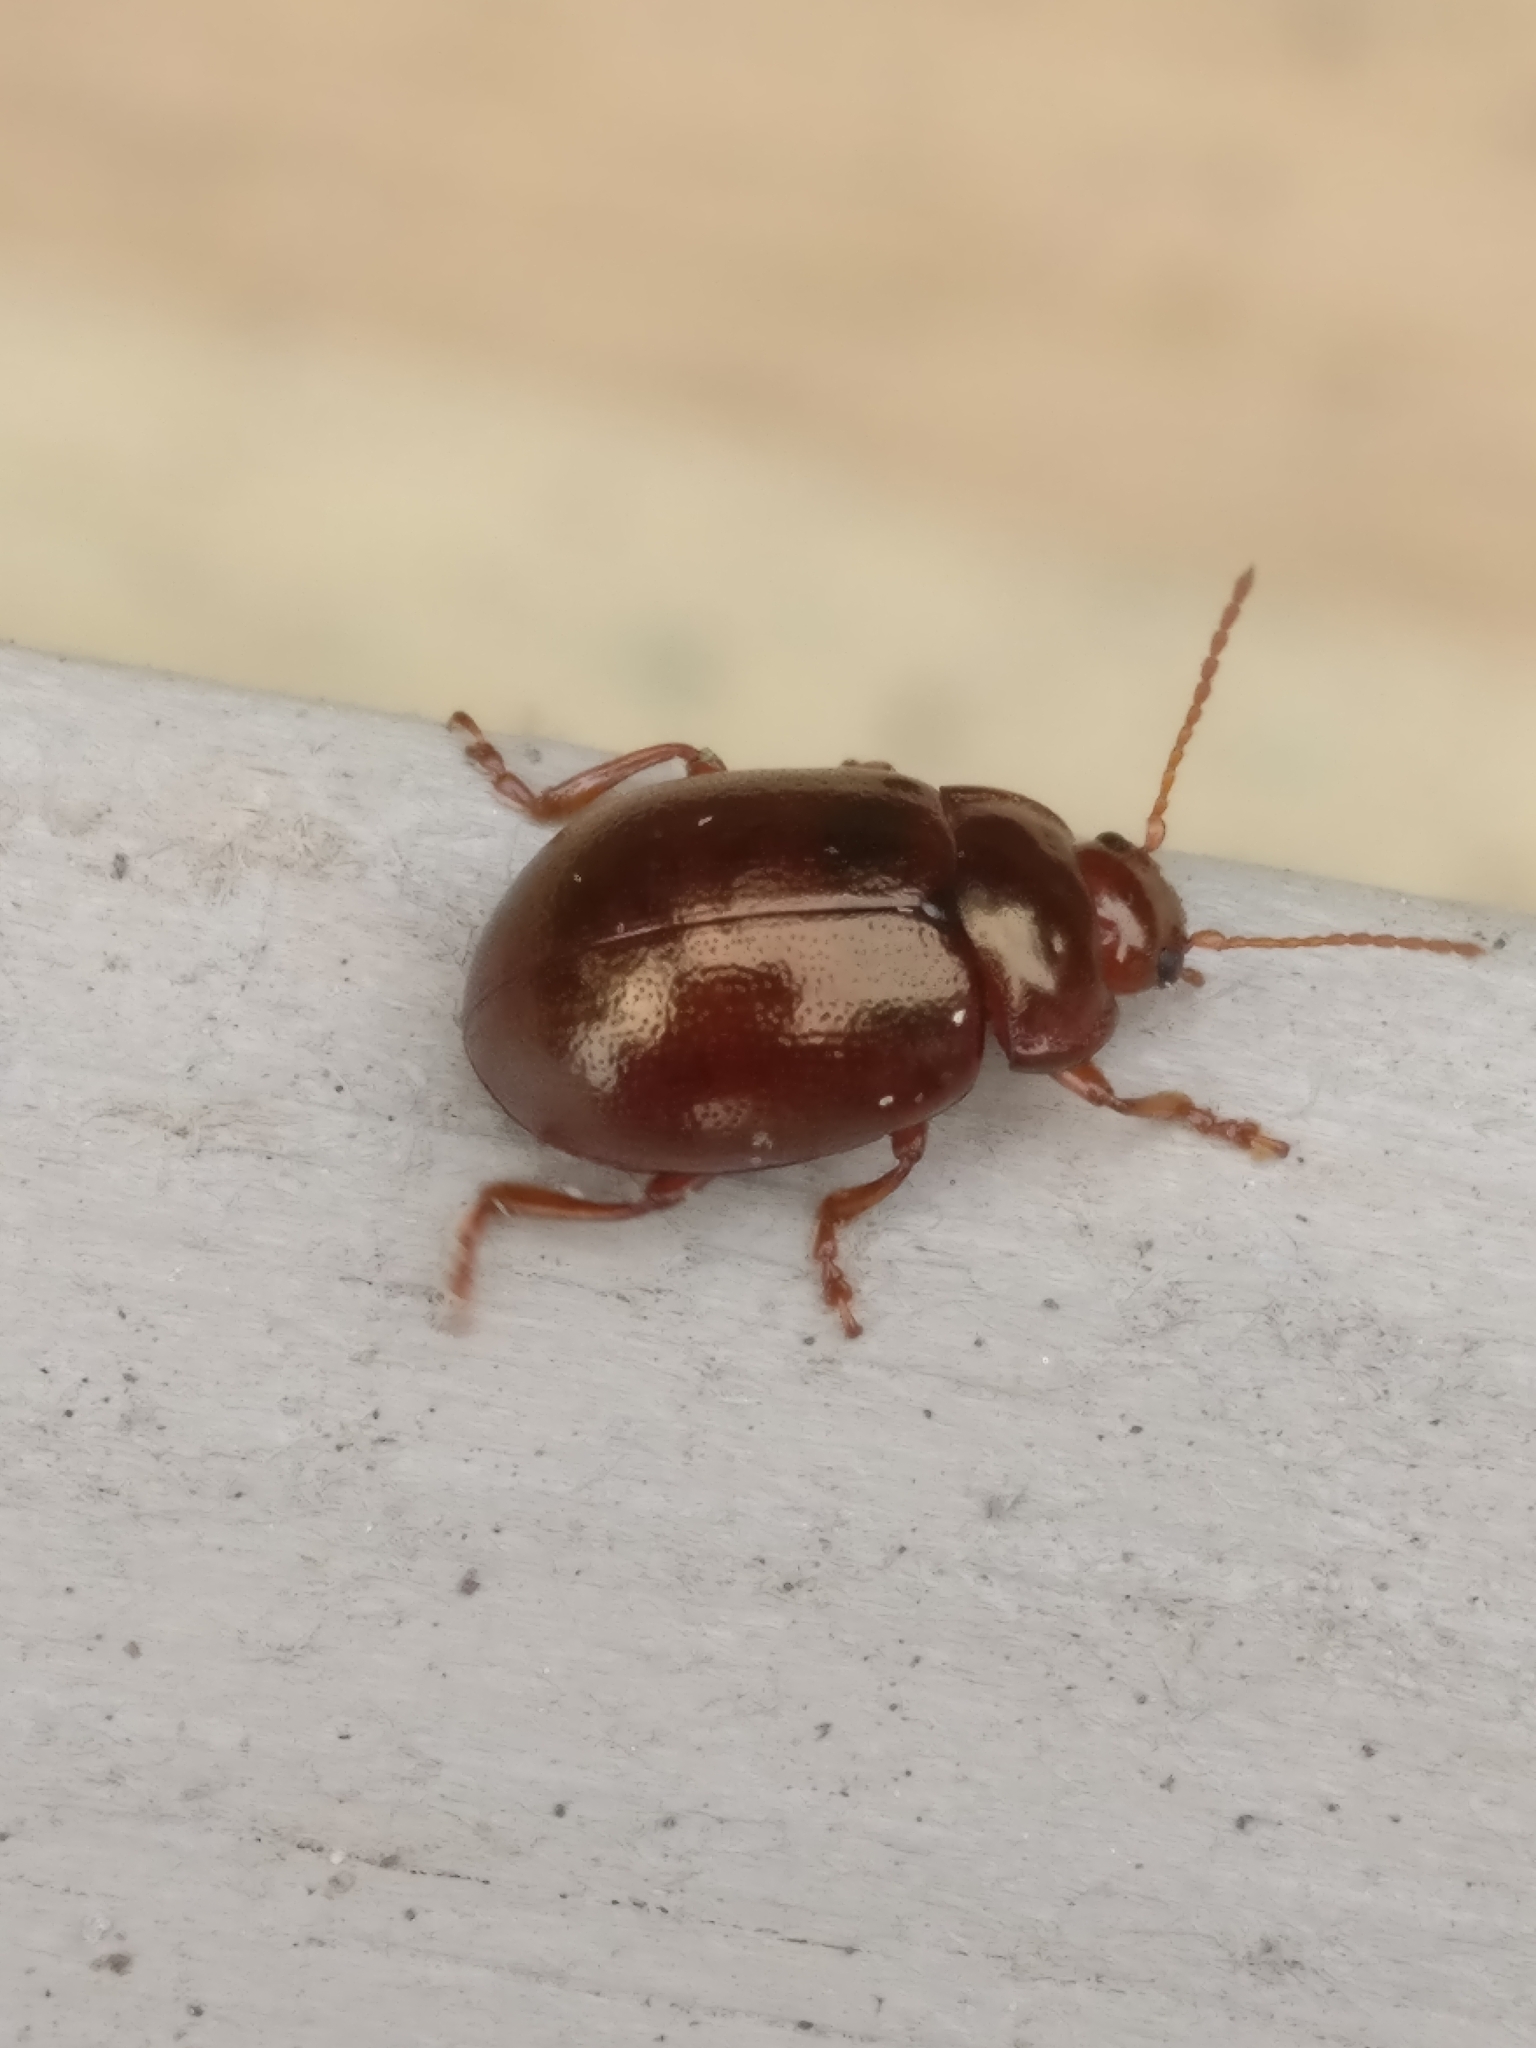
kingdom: Animalia
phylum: Arthropoda
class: Insecta
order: Coleoptera
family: Chrysomelidae
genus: Chrysolina
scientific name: Chrysolina staphylaea
